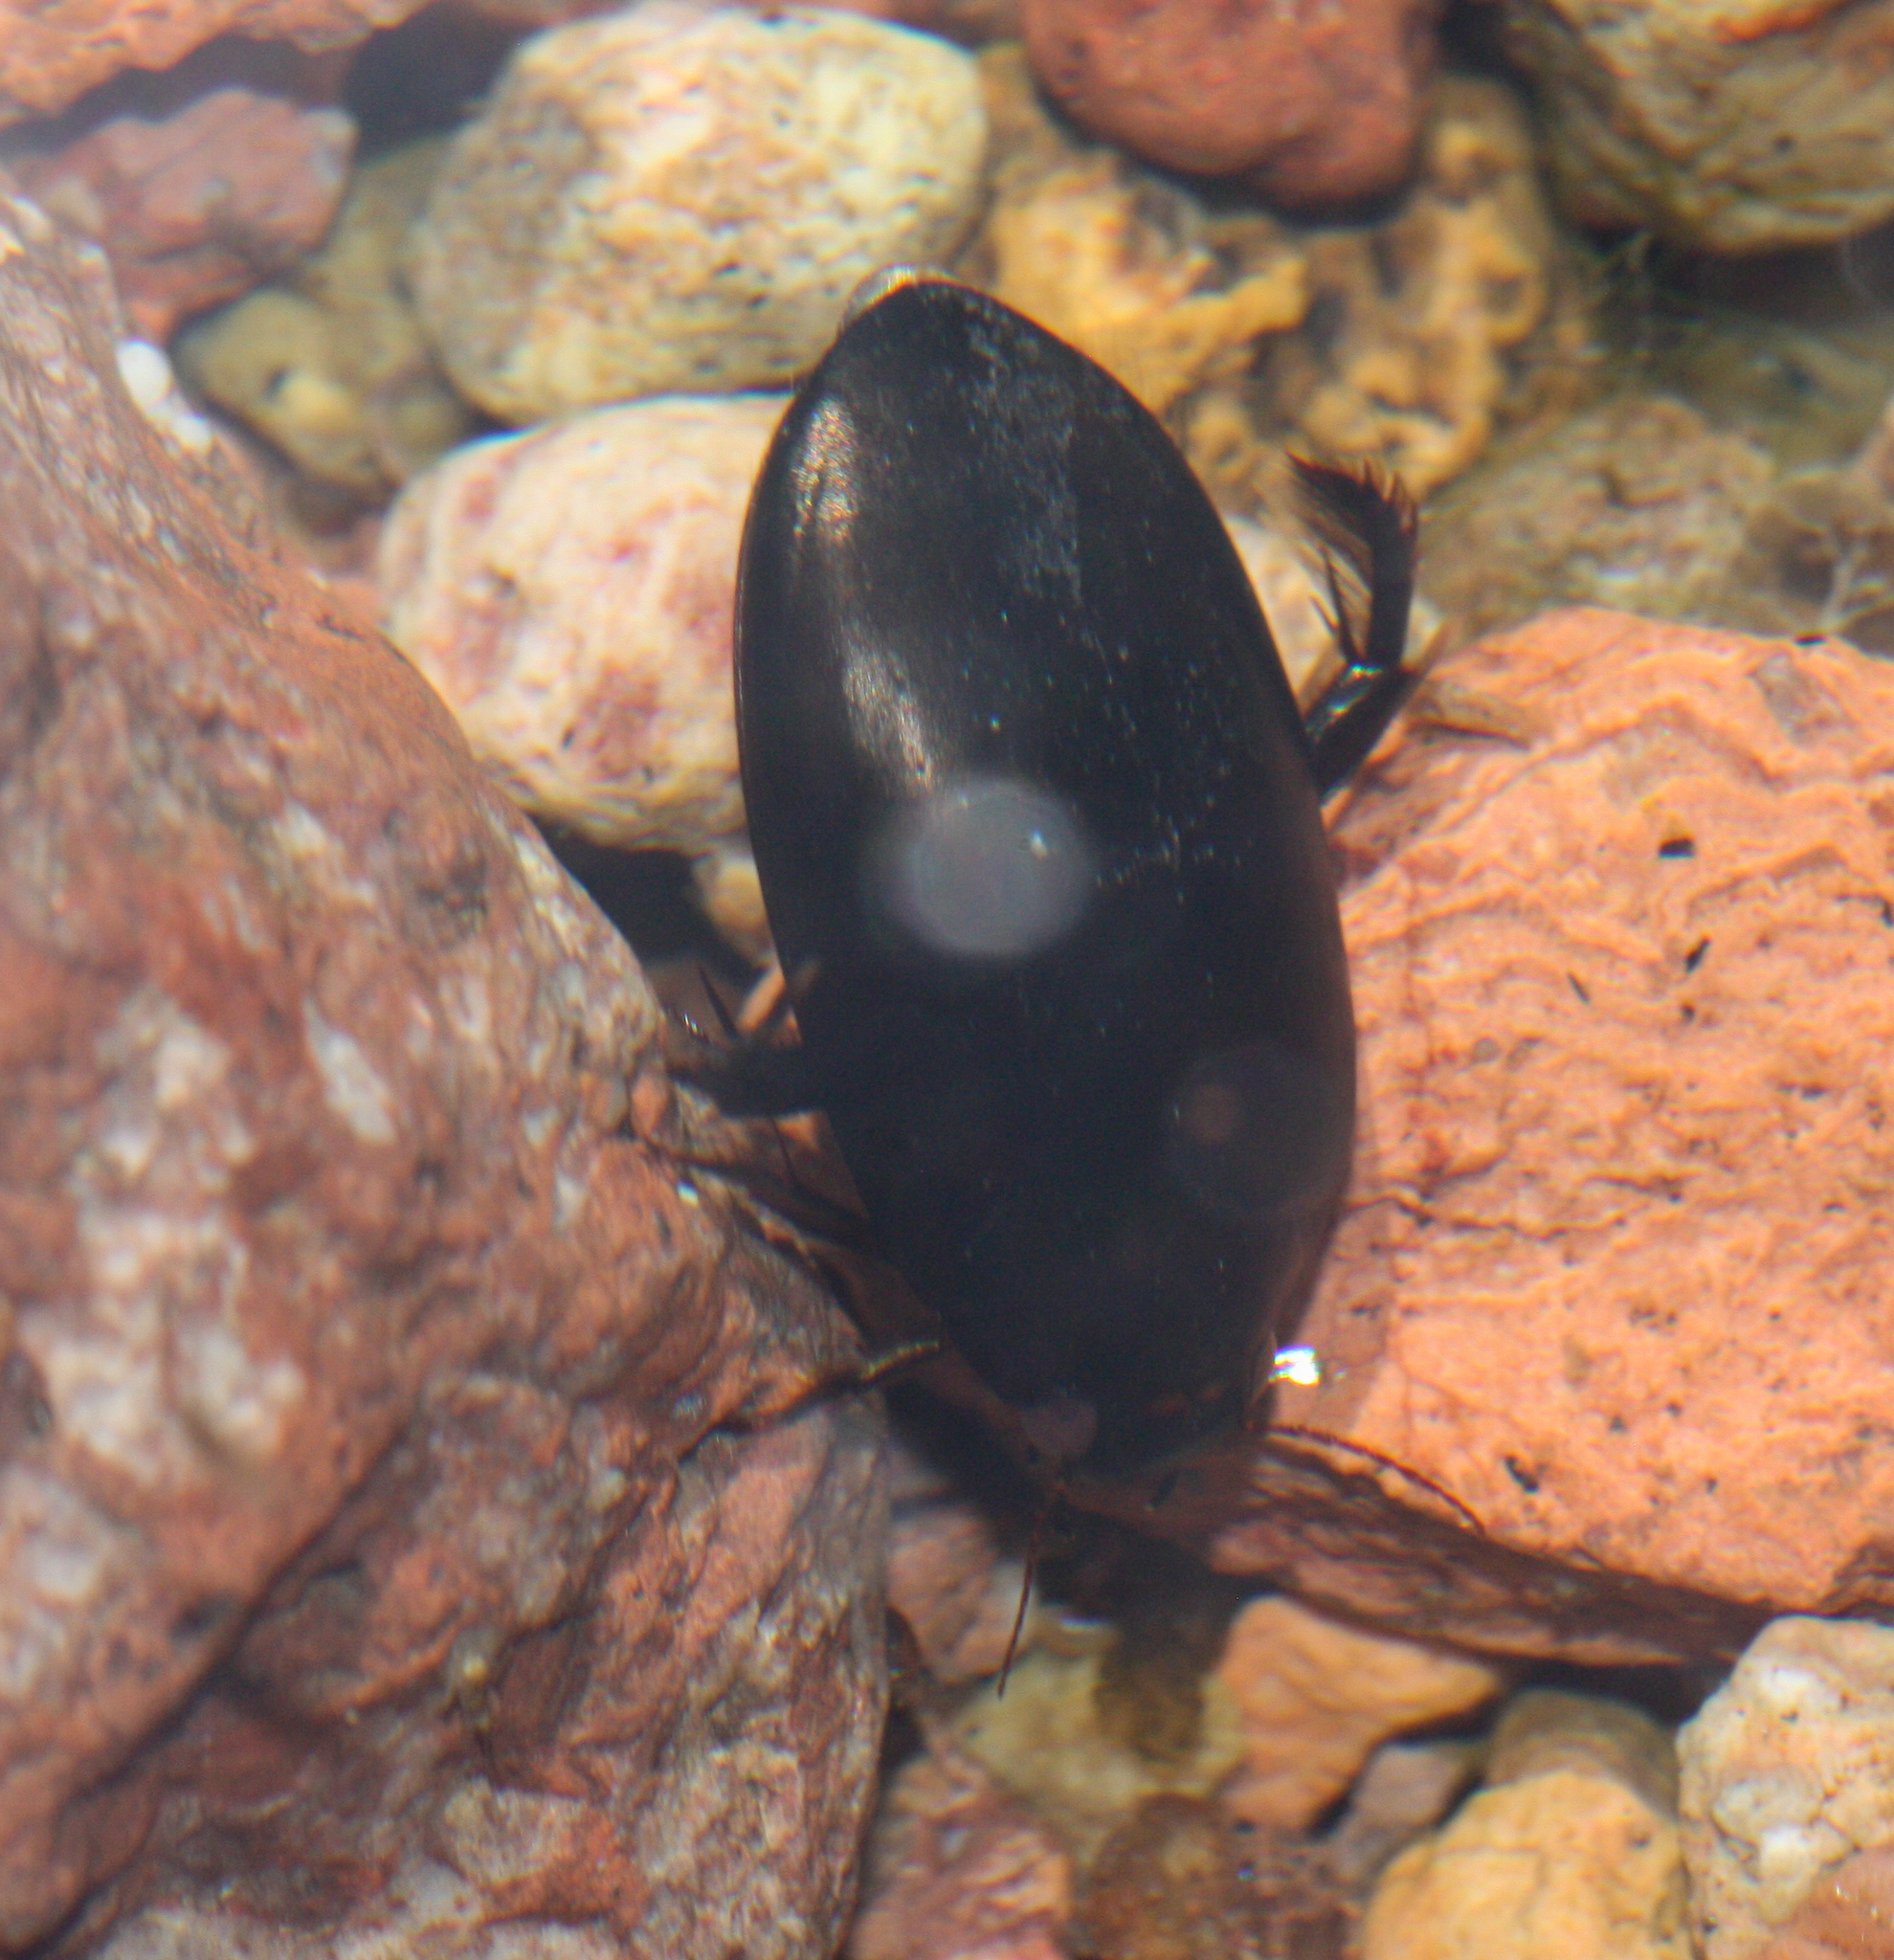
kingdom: Animalia
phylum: Arthropoda
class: Insecta
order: Coleoptera
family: Dytiscidae
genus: Rhantus
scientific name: Rhantus atricolor
